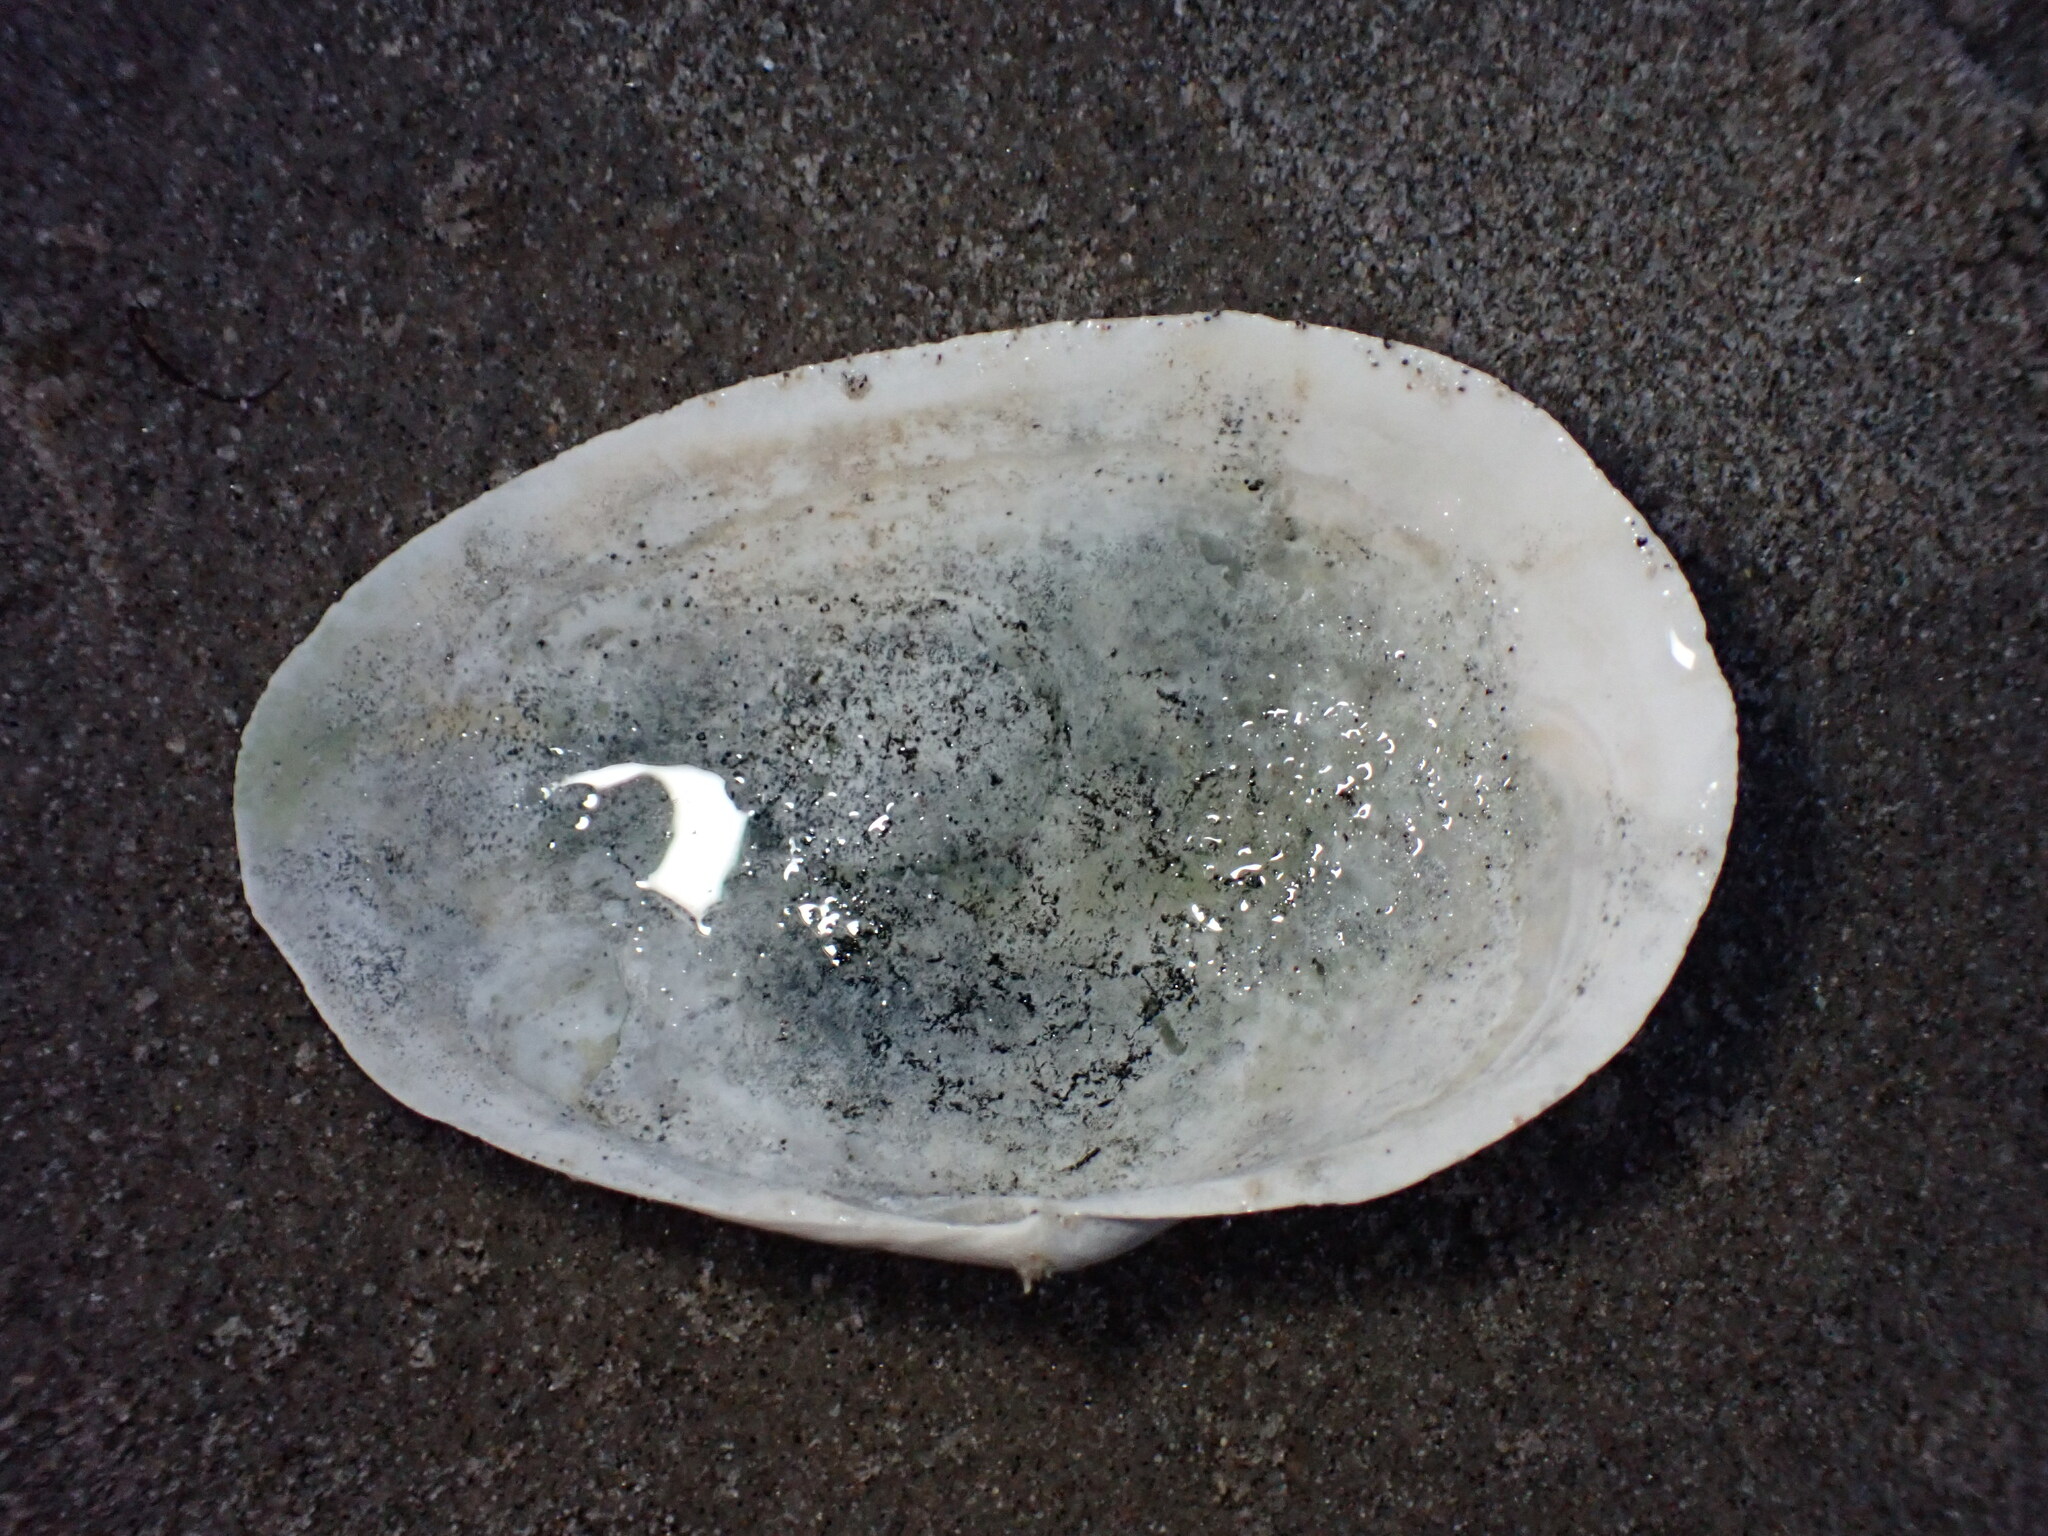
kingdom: Animalia
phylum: Mollusca
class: Bivalvia
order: Myida
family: Myidae
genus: Mya
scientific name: Mya arenaria
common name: Soft-shelled clam
